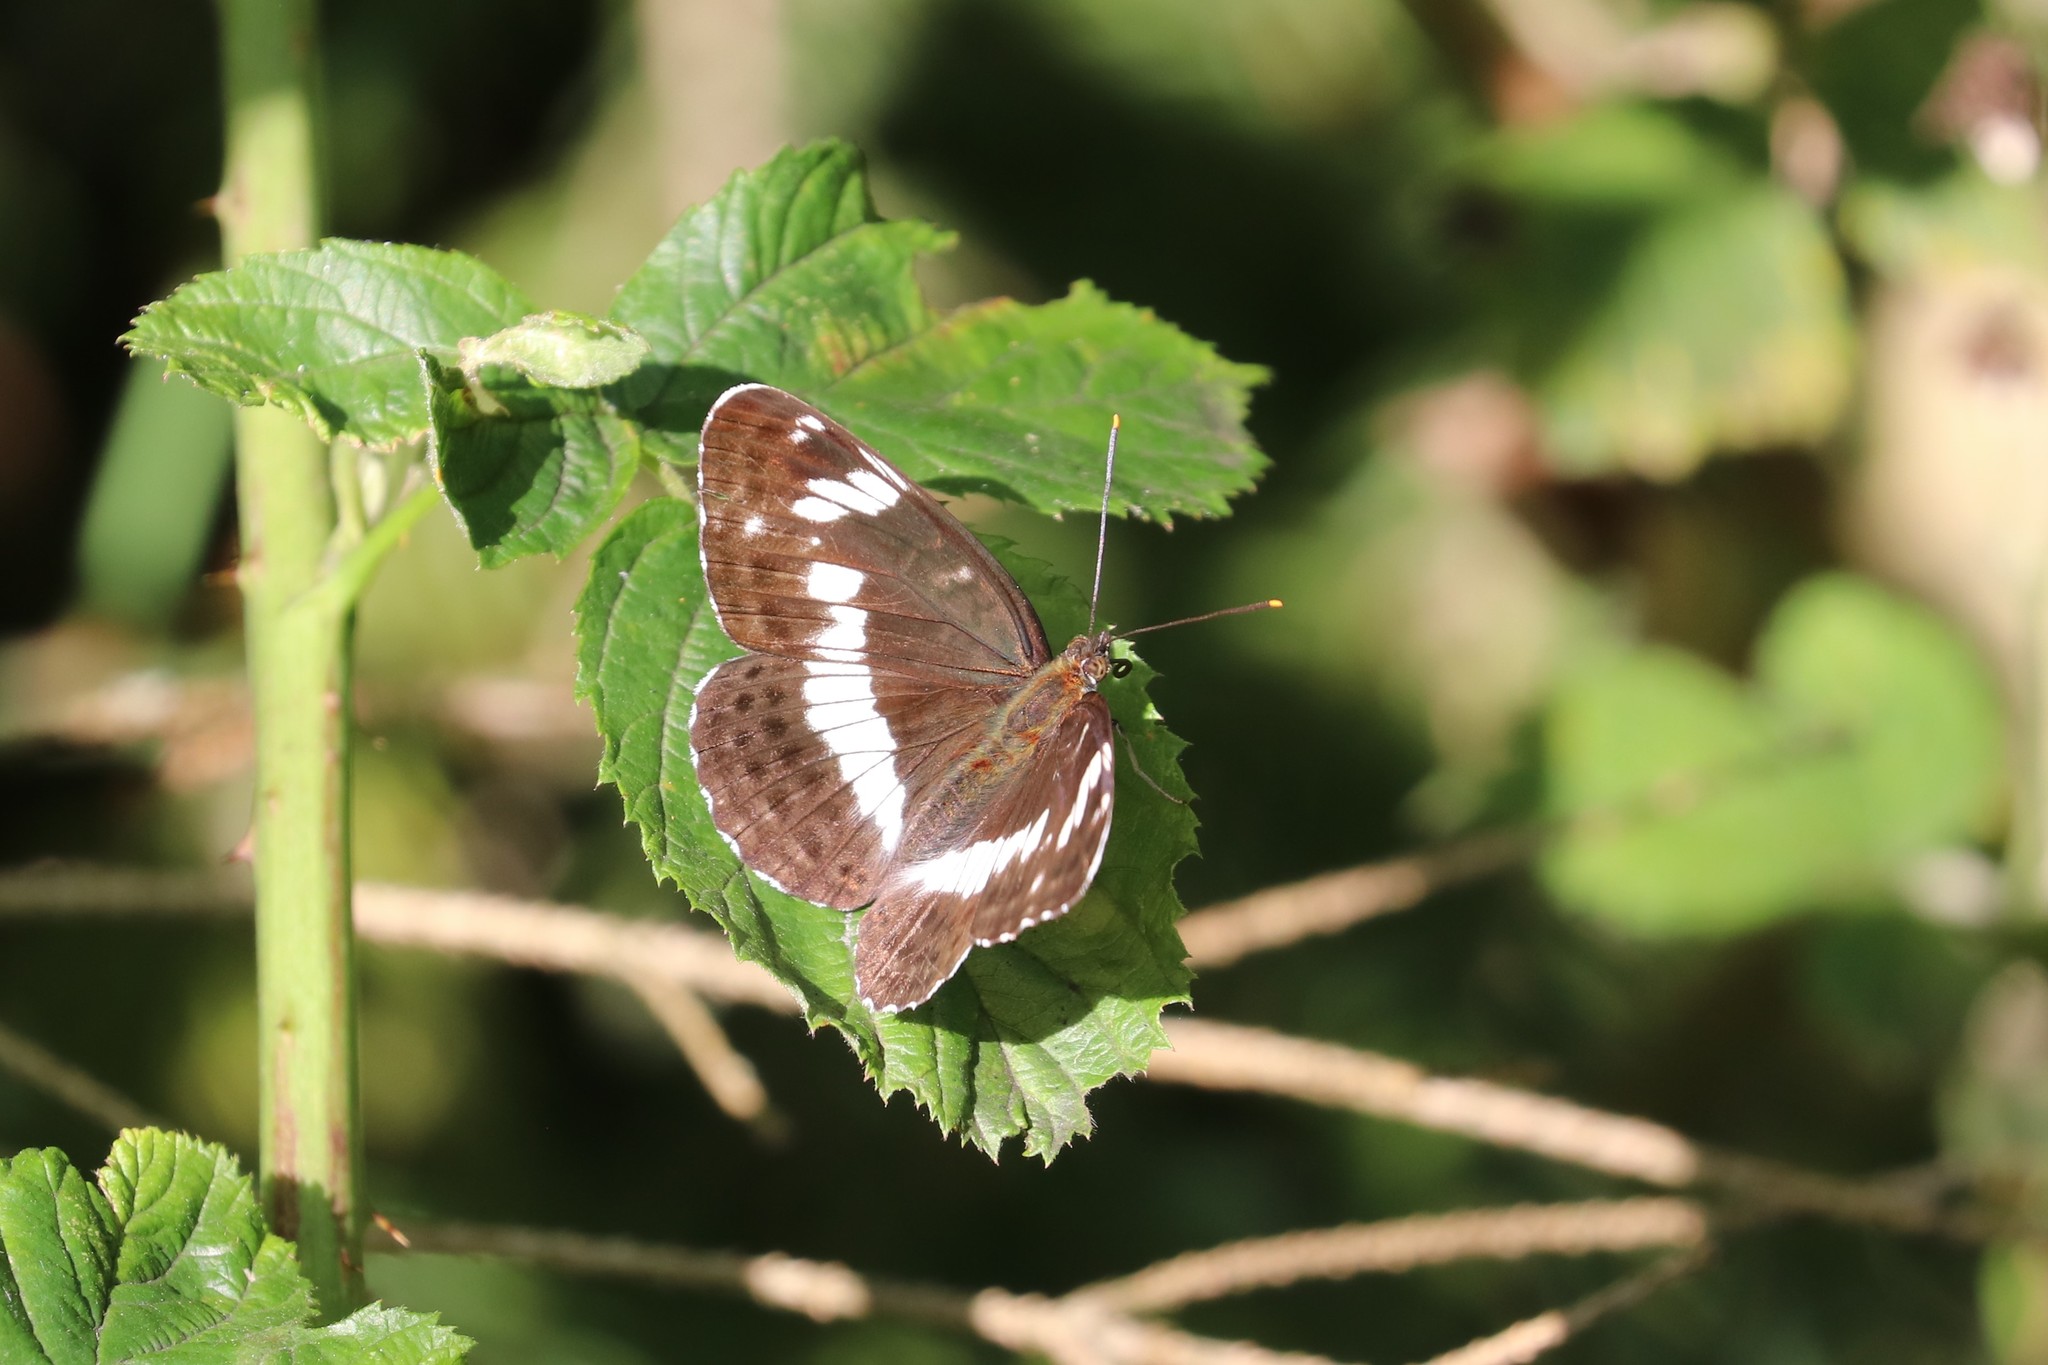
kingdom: Animalia
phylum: Arthropoda
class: Insecta
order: Lepidoptera
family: Nymphalidae
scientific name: Nymphalidae
